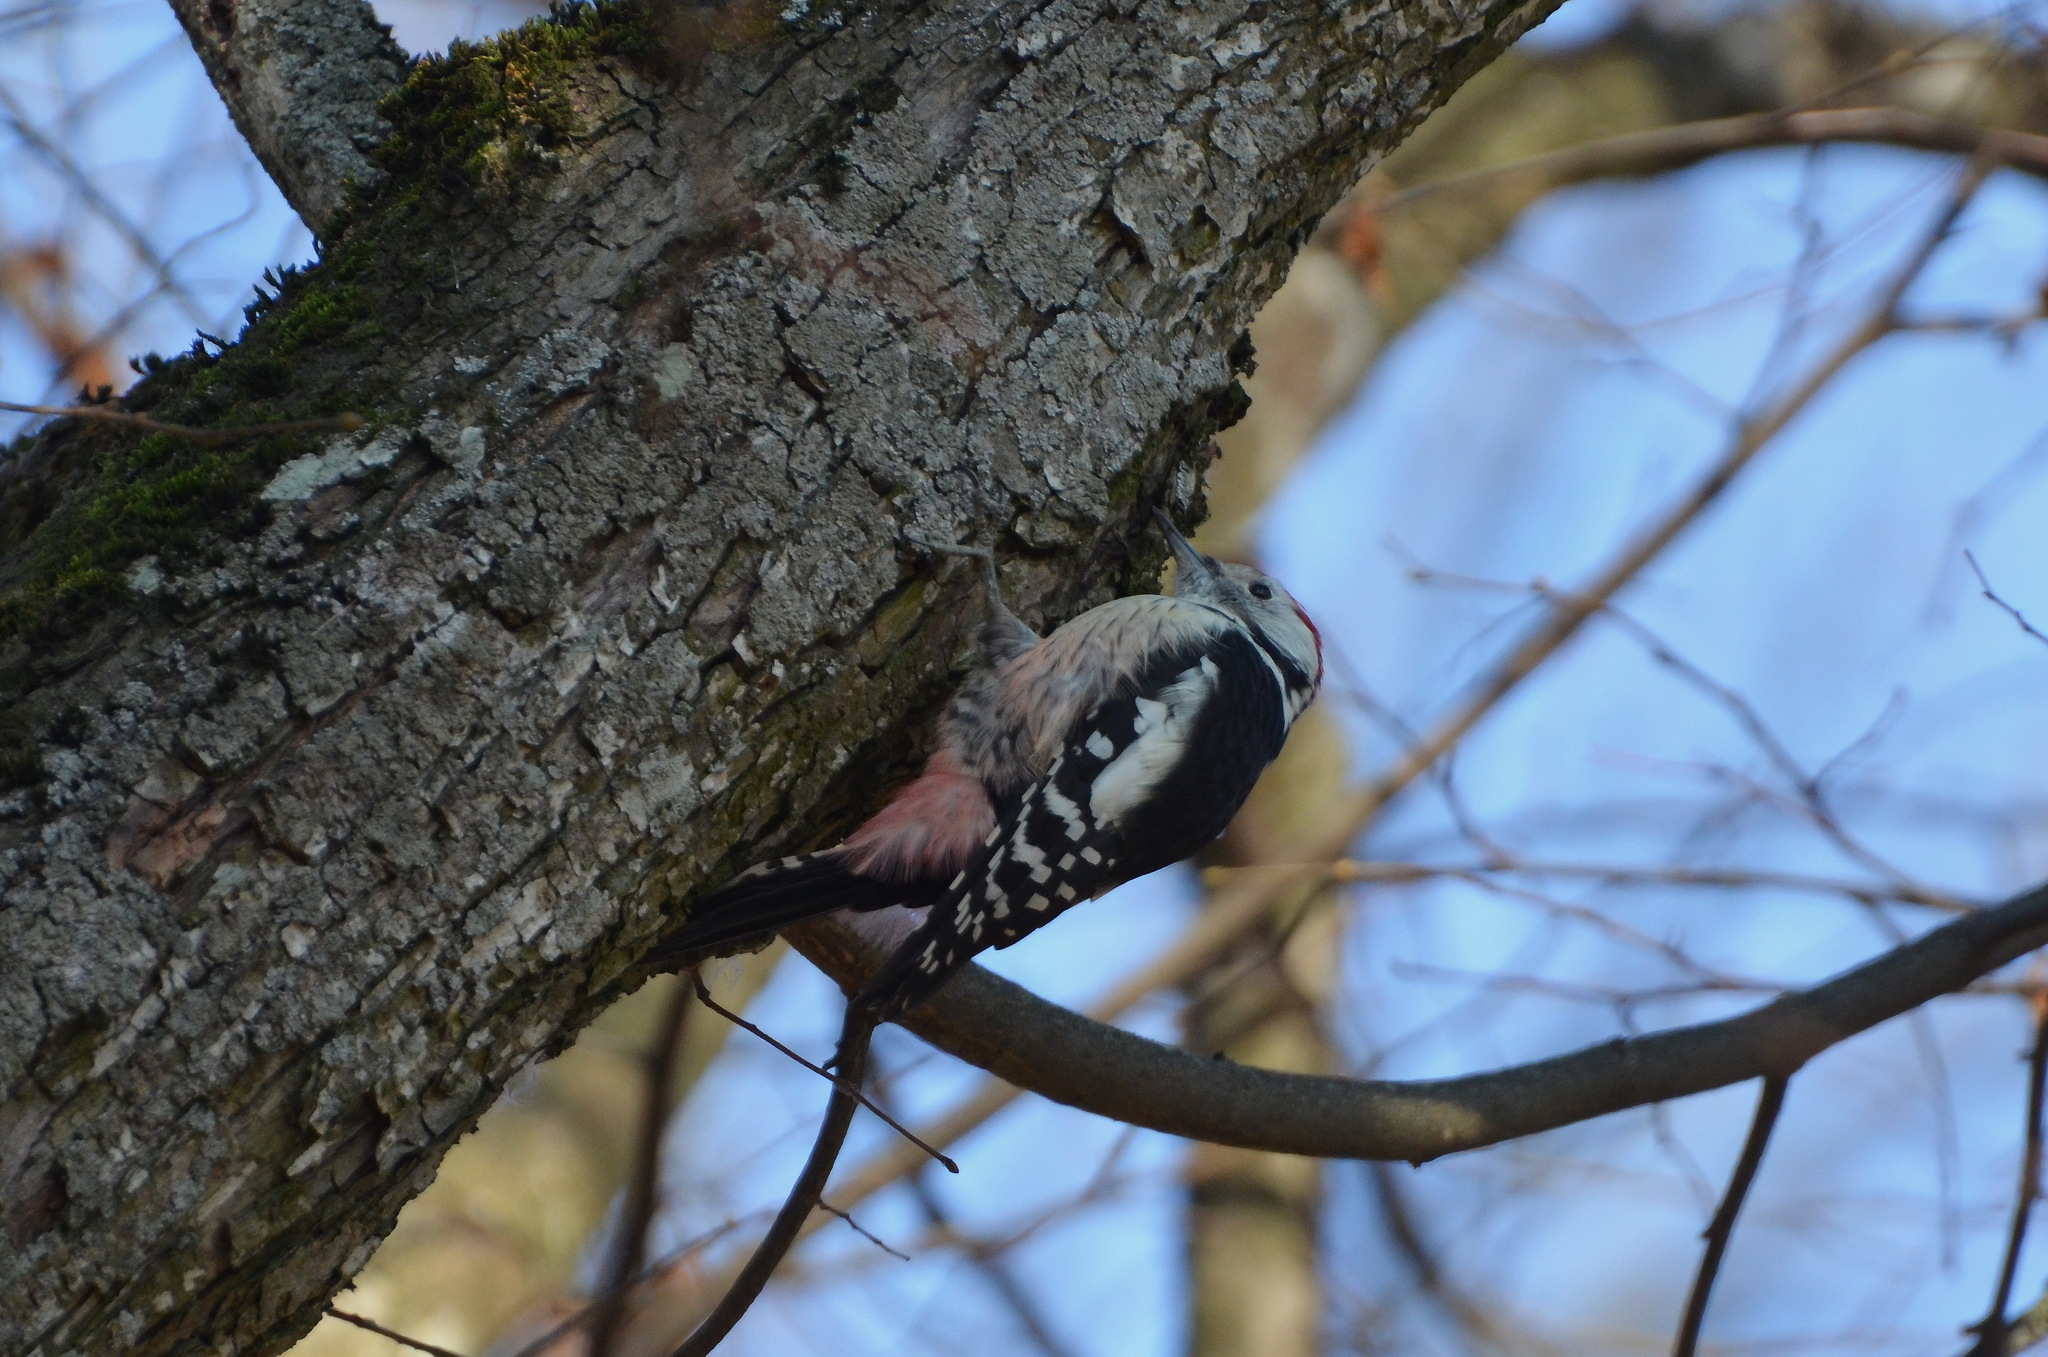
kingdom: Animalia
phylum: Chordata
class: Aves
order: Piciformes
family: Picidae
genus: Dendrocoptes
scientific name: Dendrocoptes medius
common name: Middle spotted woodpecker
